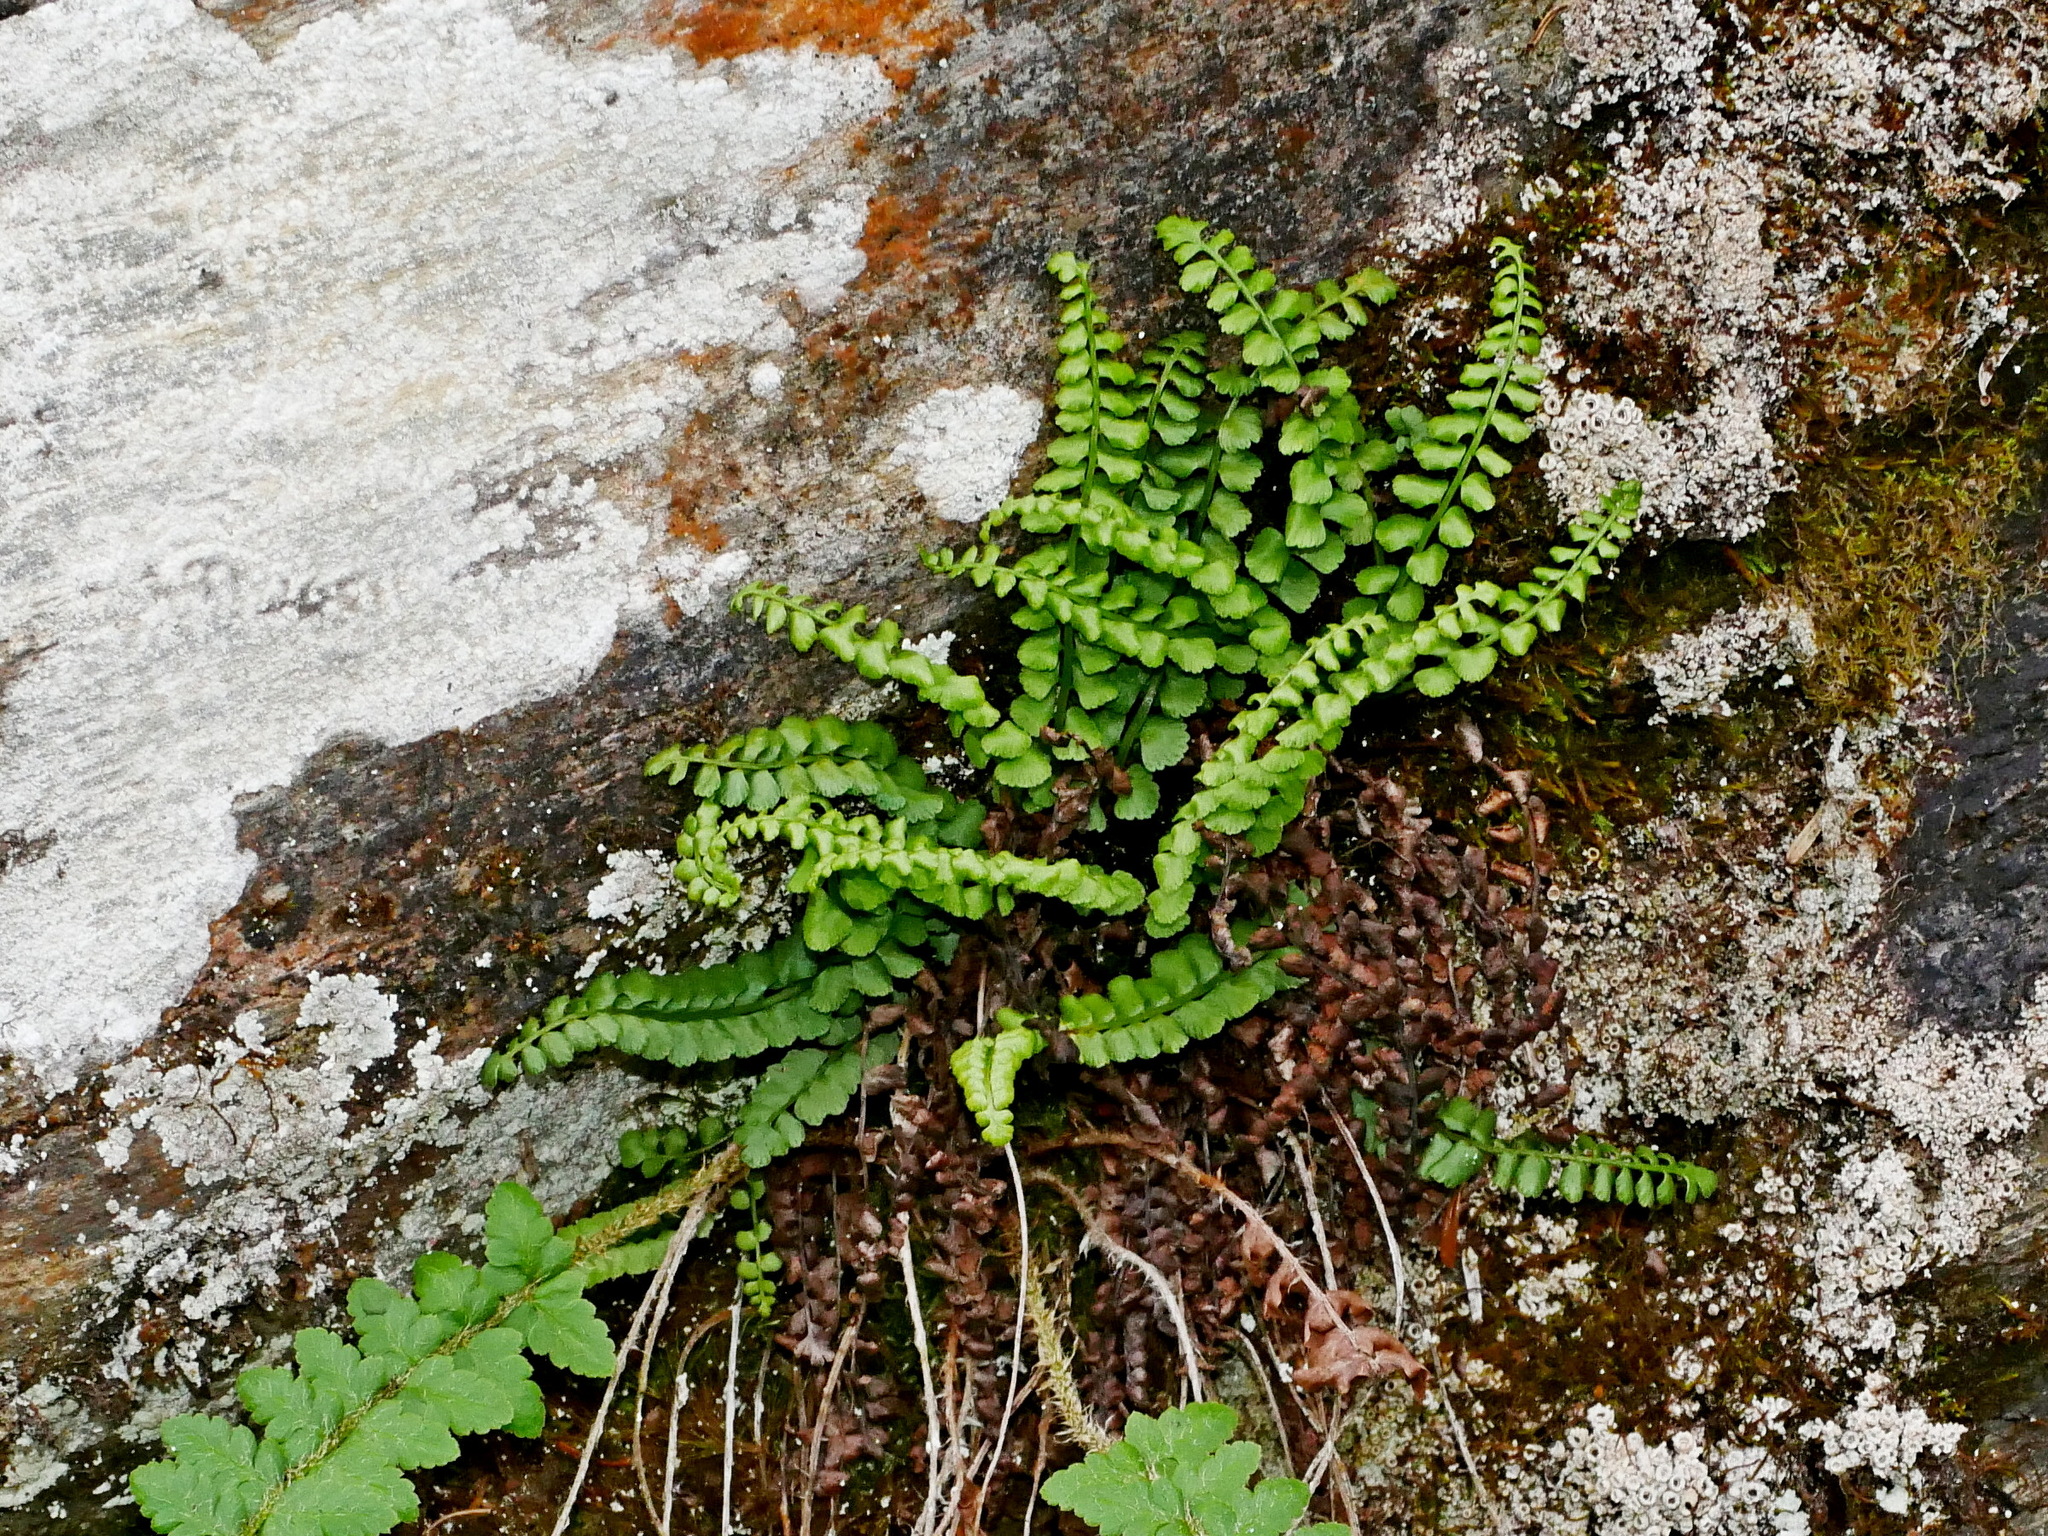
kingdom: Plantae
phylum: Tracheophyta
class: Polypodiopsida
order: Polypodiales
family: Aspleniaceae
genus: Asplenium
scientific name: Asplenium viride
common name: Green spleenwort
